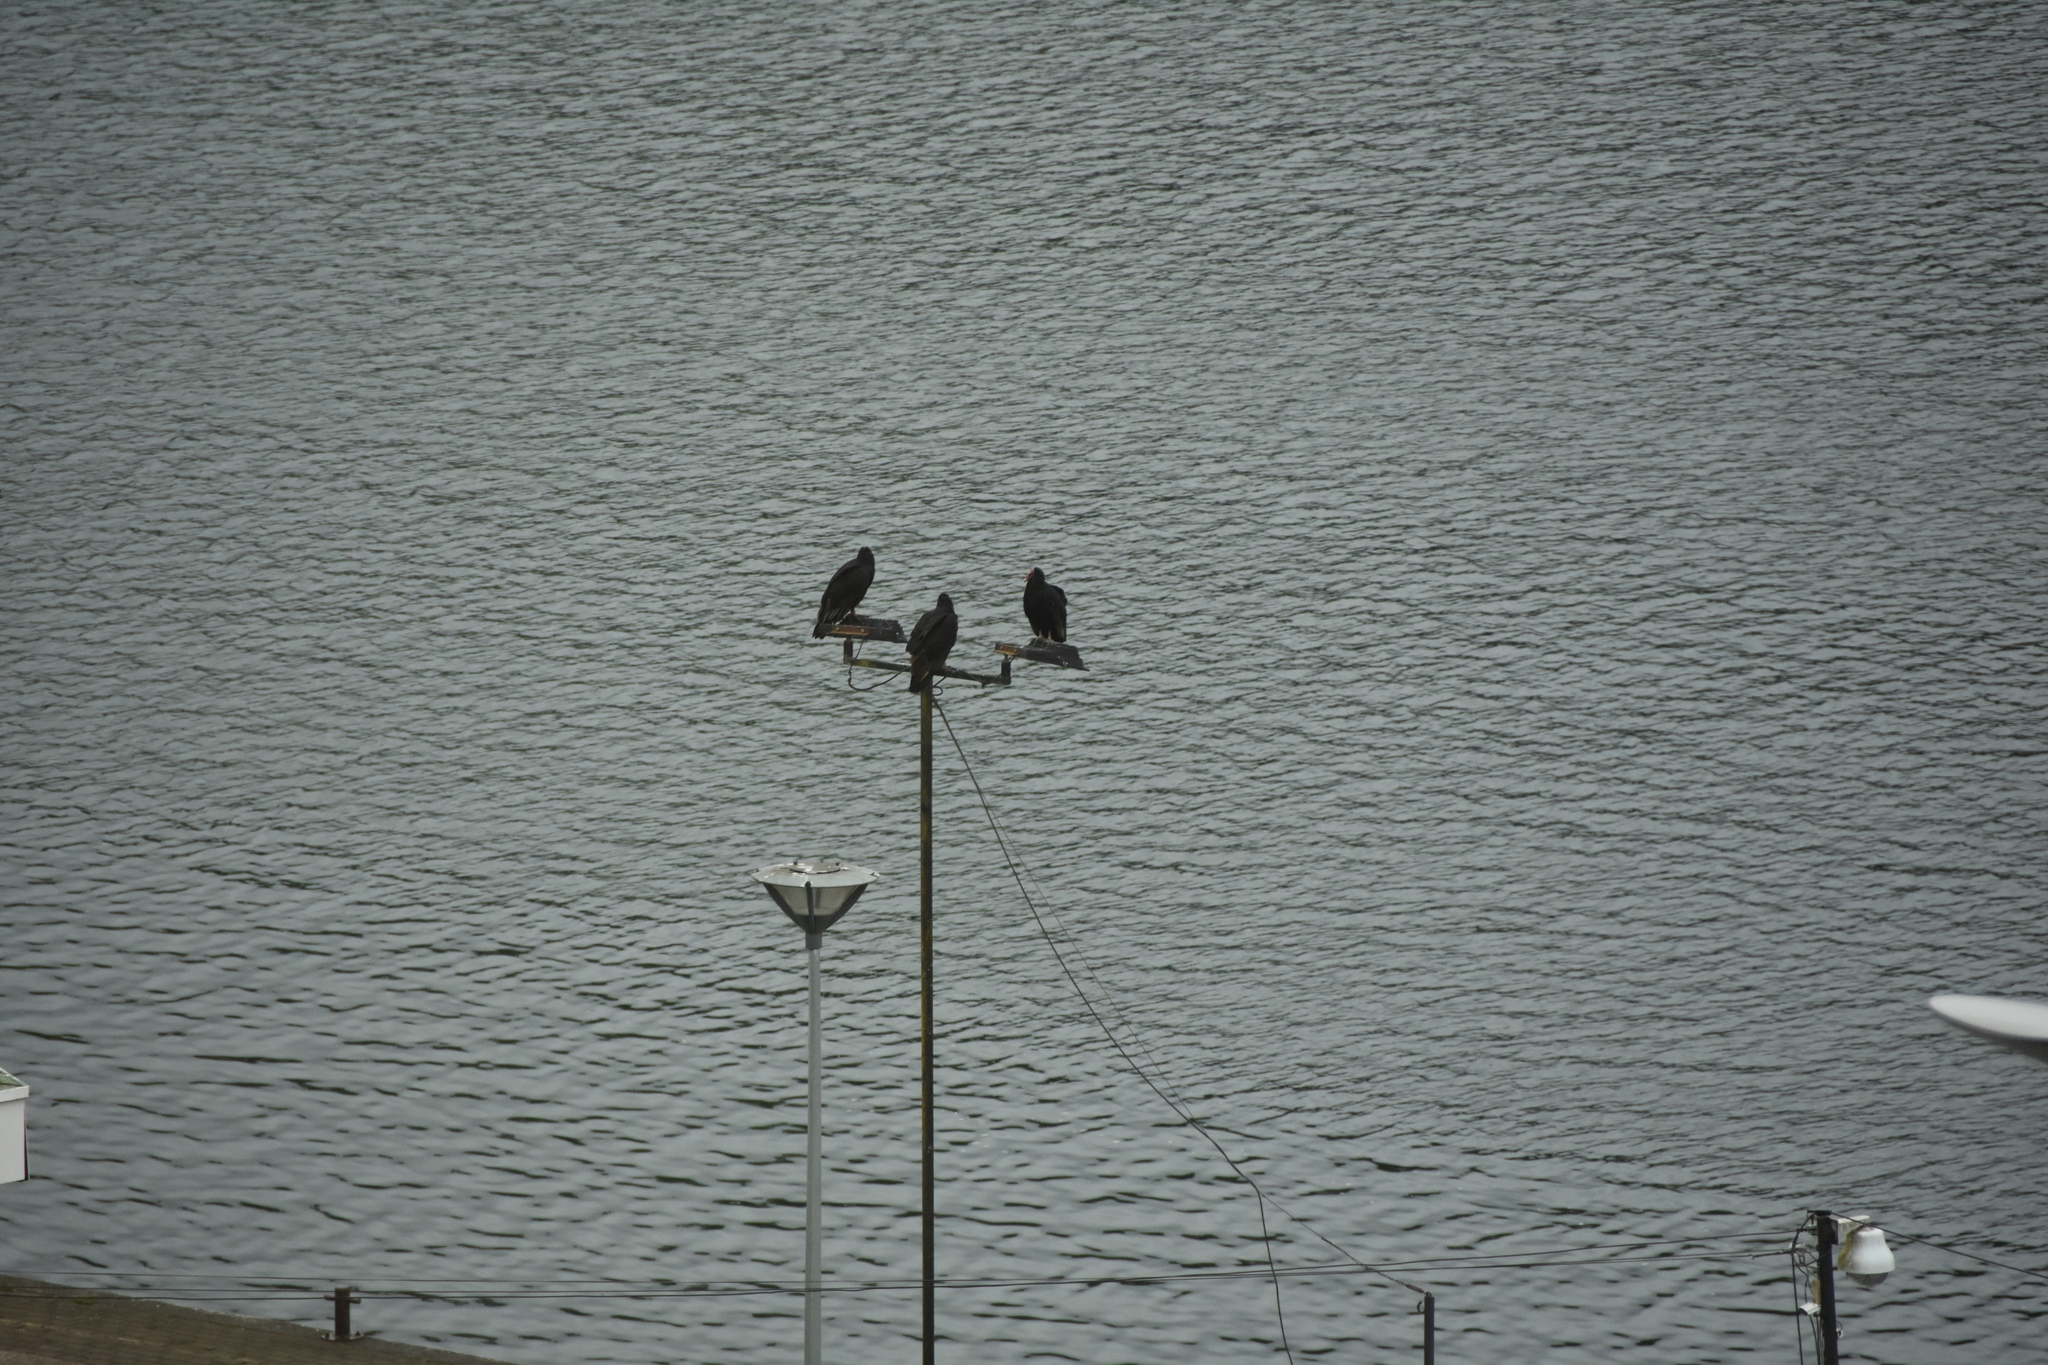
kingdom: Animalia
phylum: Chordata
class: Aves
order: Accipitriformes
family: Cathartidae
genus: Cathartes
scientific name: Cathartes aura
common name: Turkey vulture
